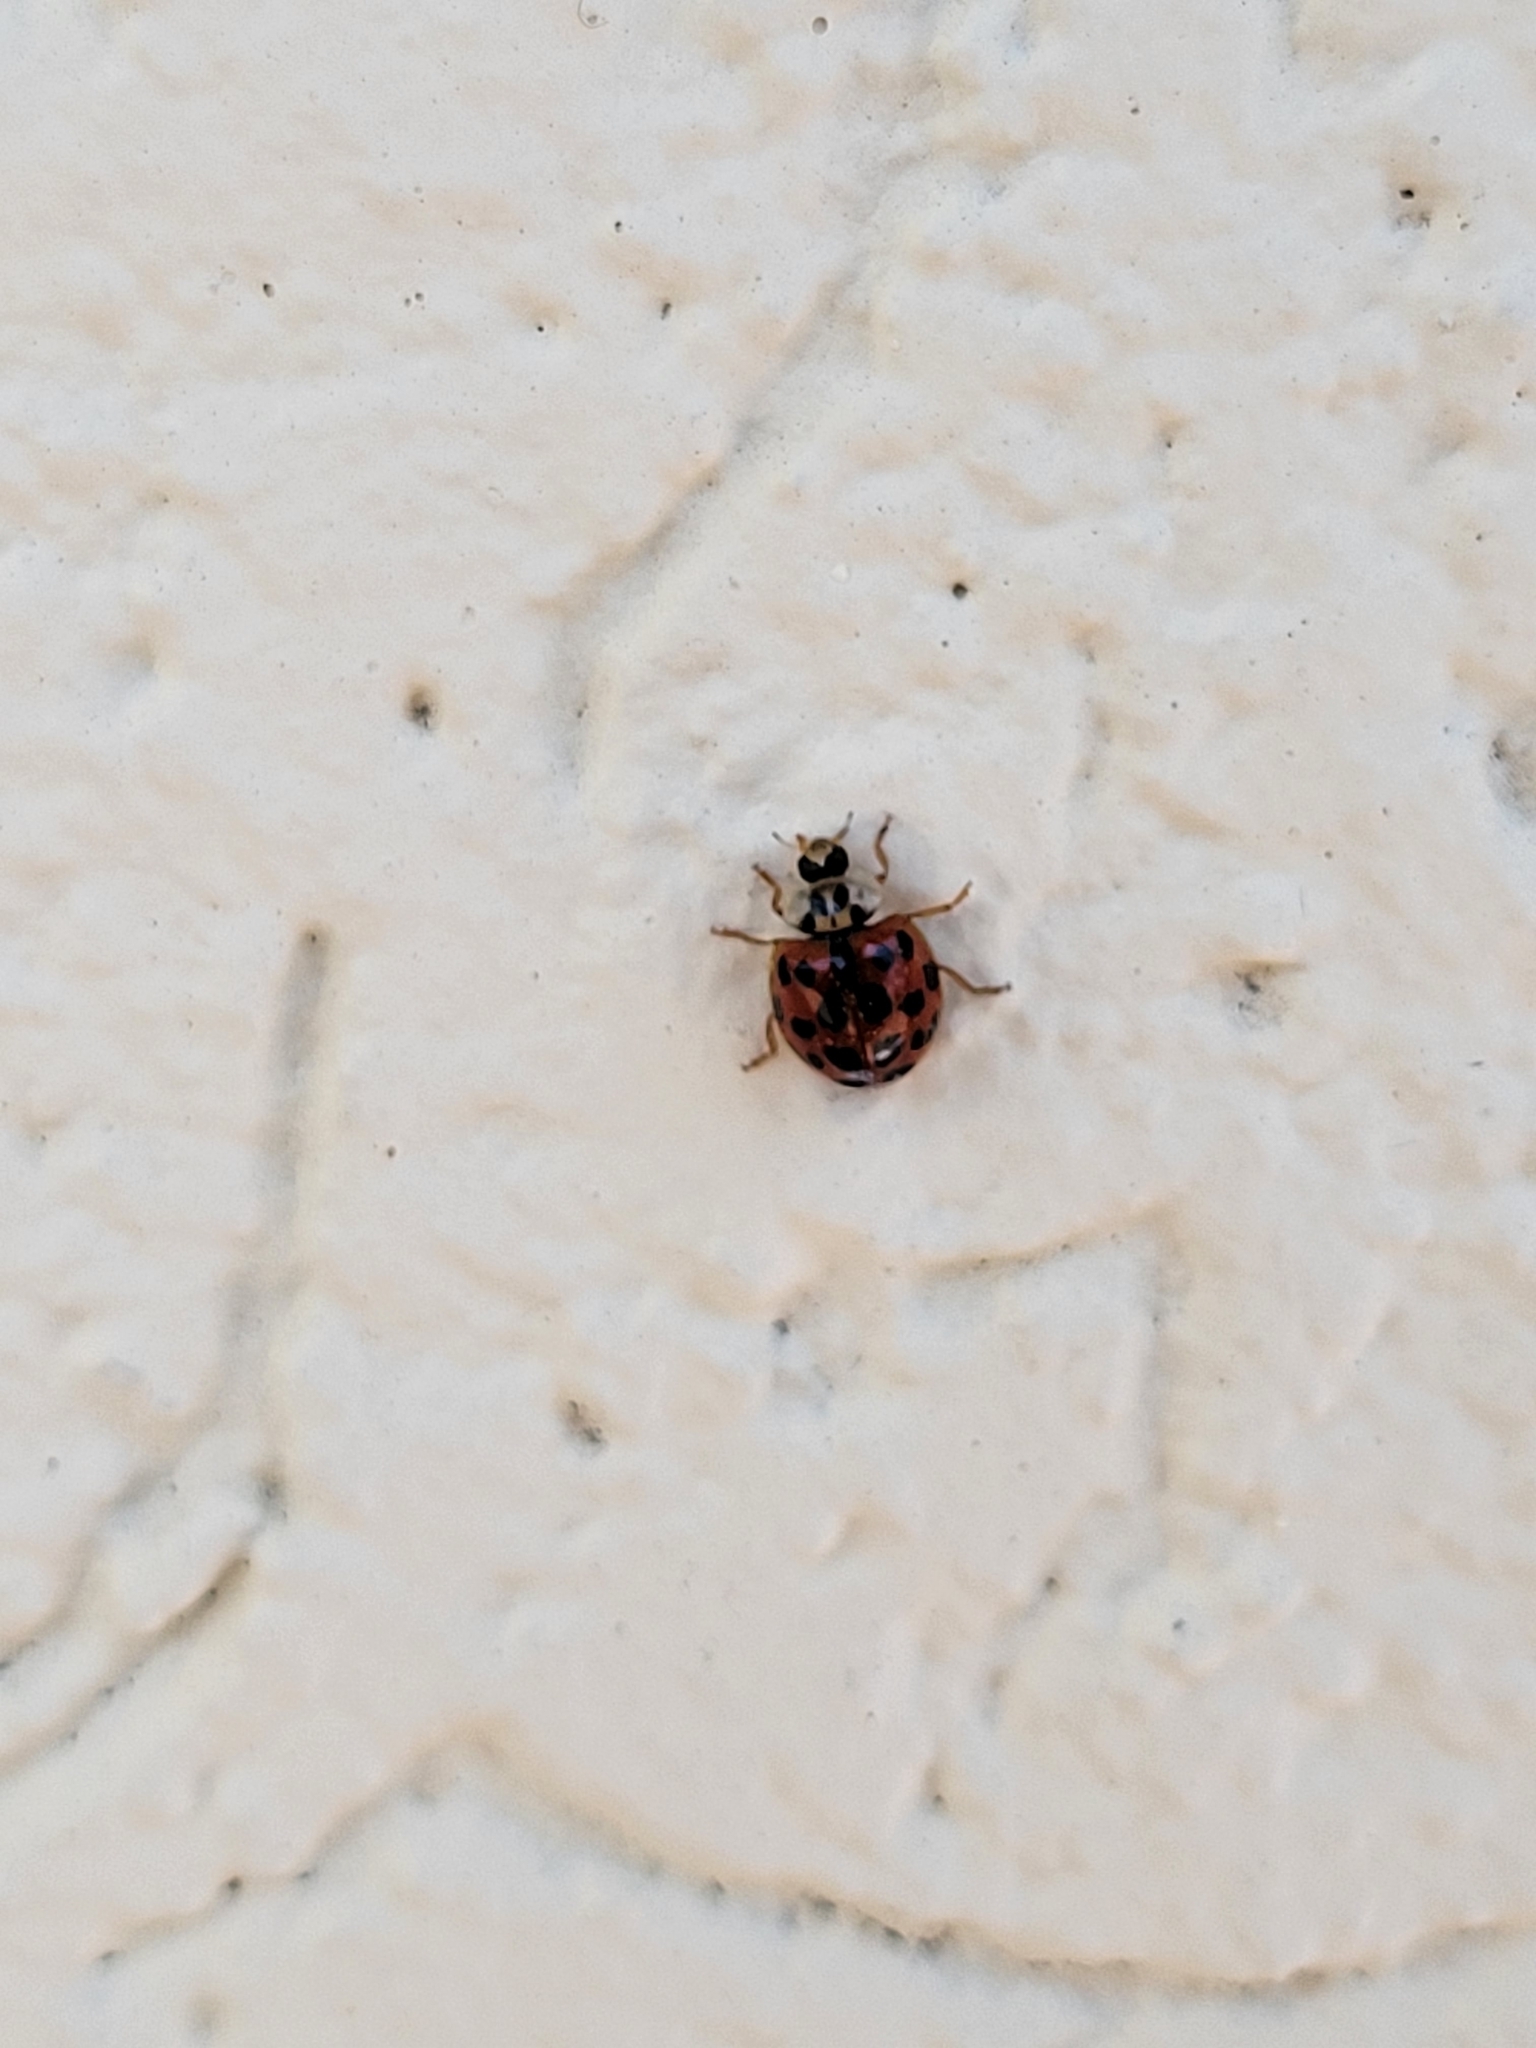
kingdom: Animalia
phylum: Arthropoda
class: Insecta
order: Coleoptera
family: Coccinellidae
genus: Harmonia
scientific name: Harmonia axyridis
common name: Harlequin ladybird
